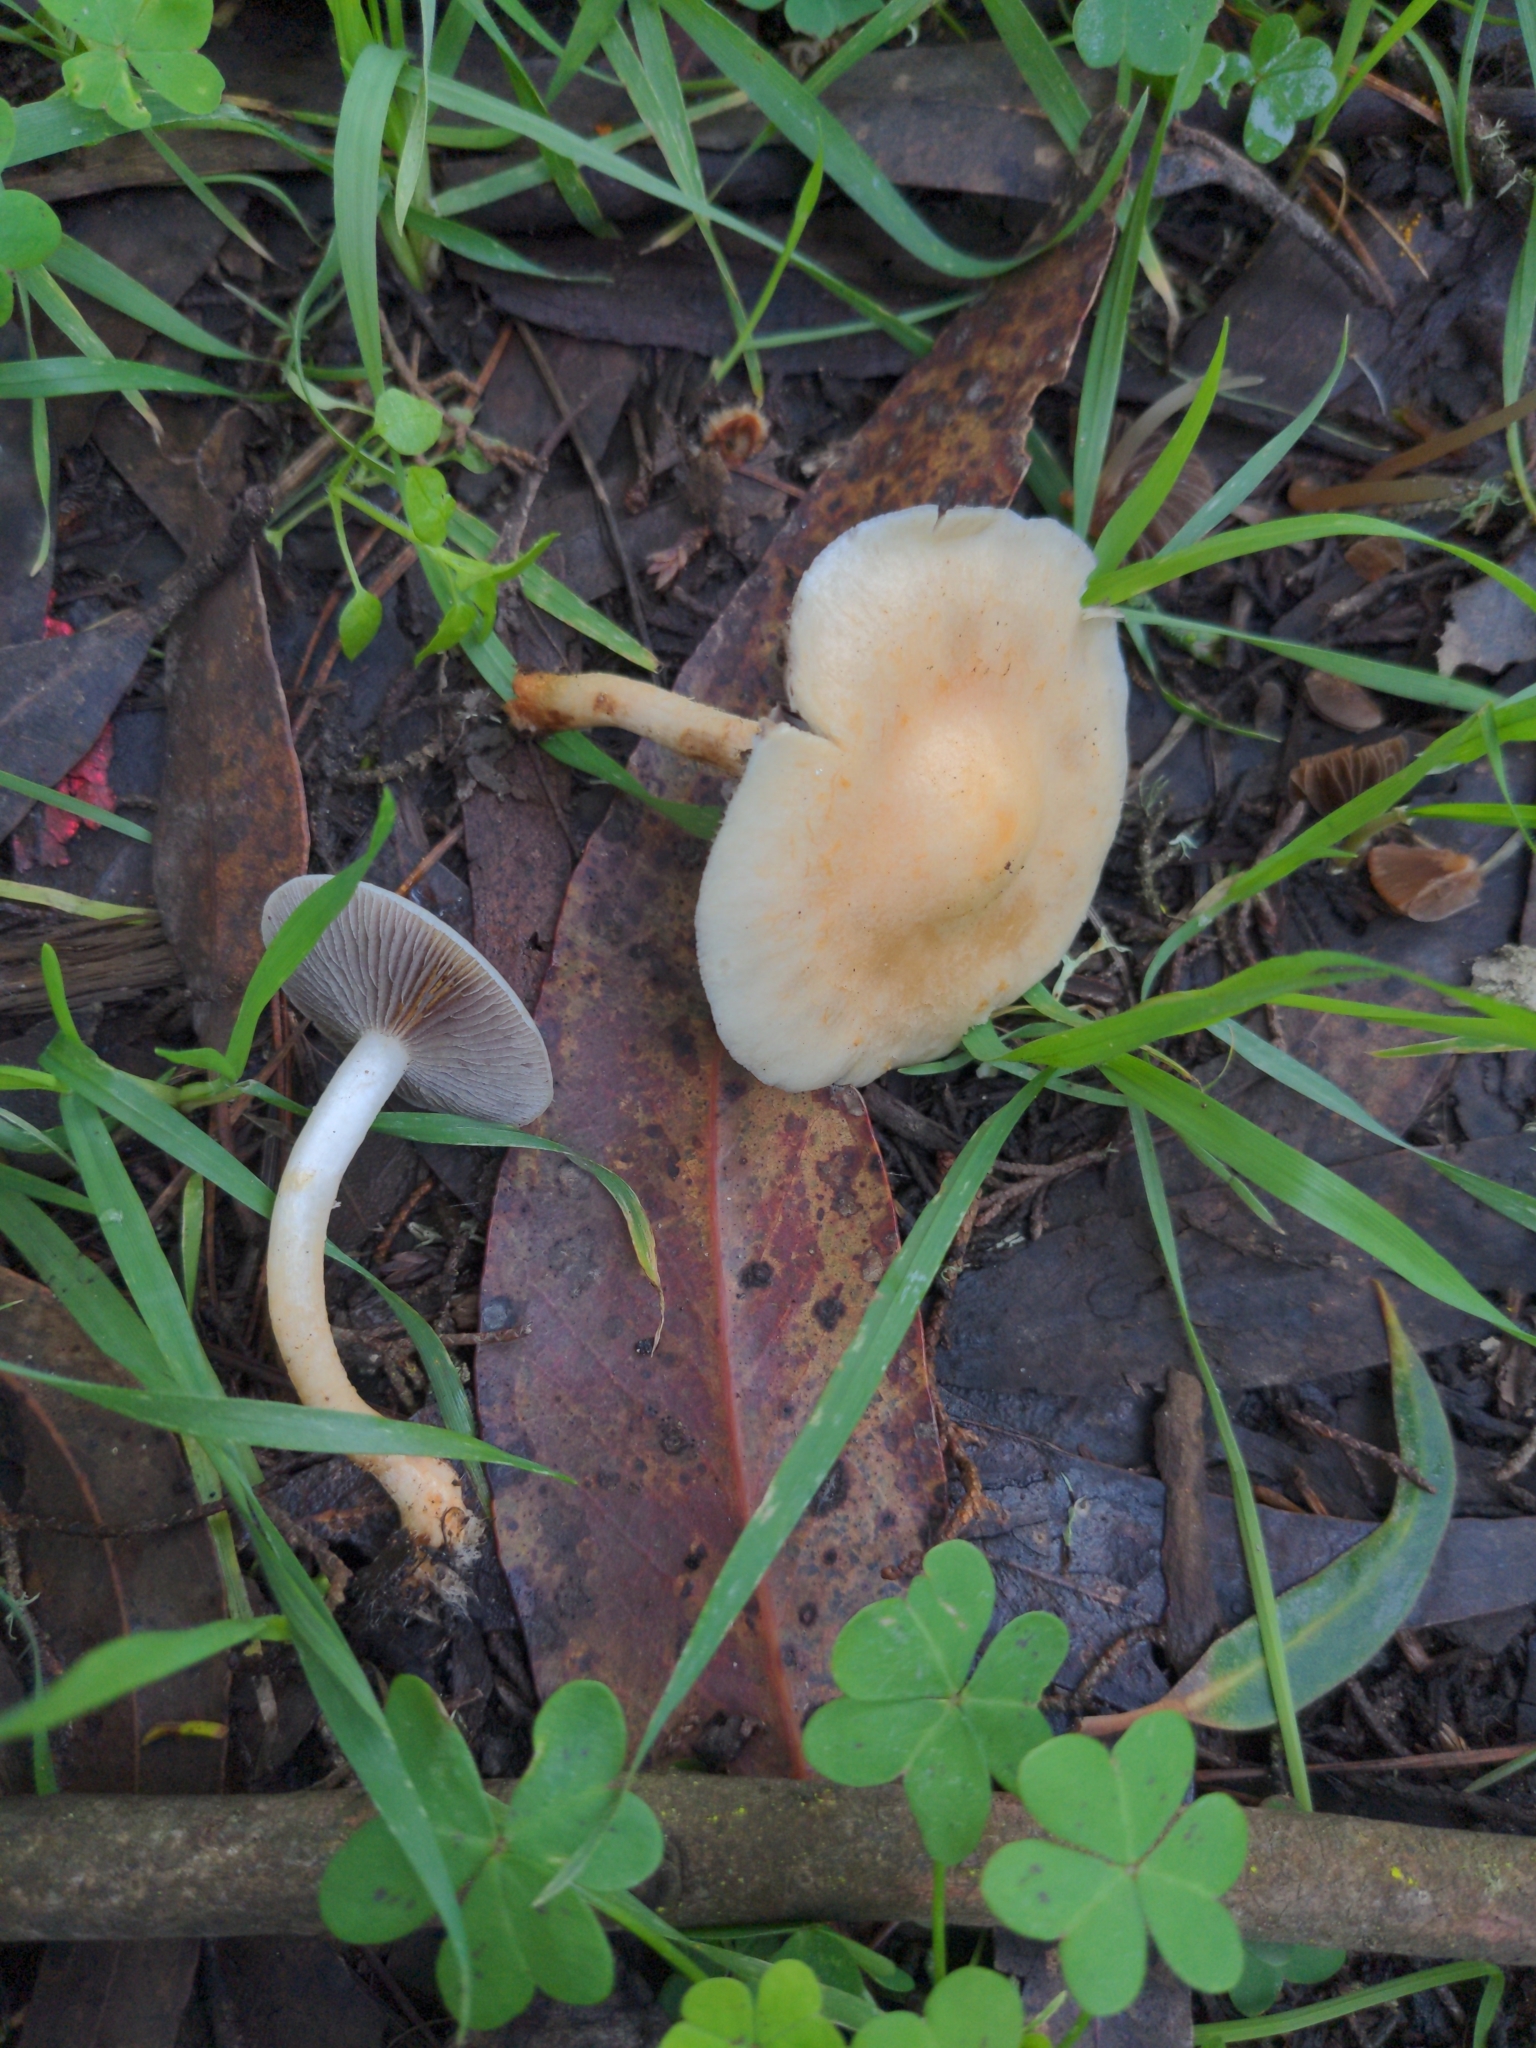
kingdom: Fungi
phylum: Basidiomycota
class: Agaricomycetes
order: Agaricales
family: Strophariaceae
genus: Leratiomyces
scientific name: Leratiomyces percevalii
